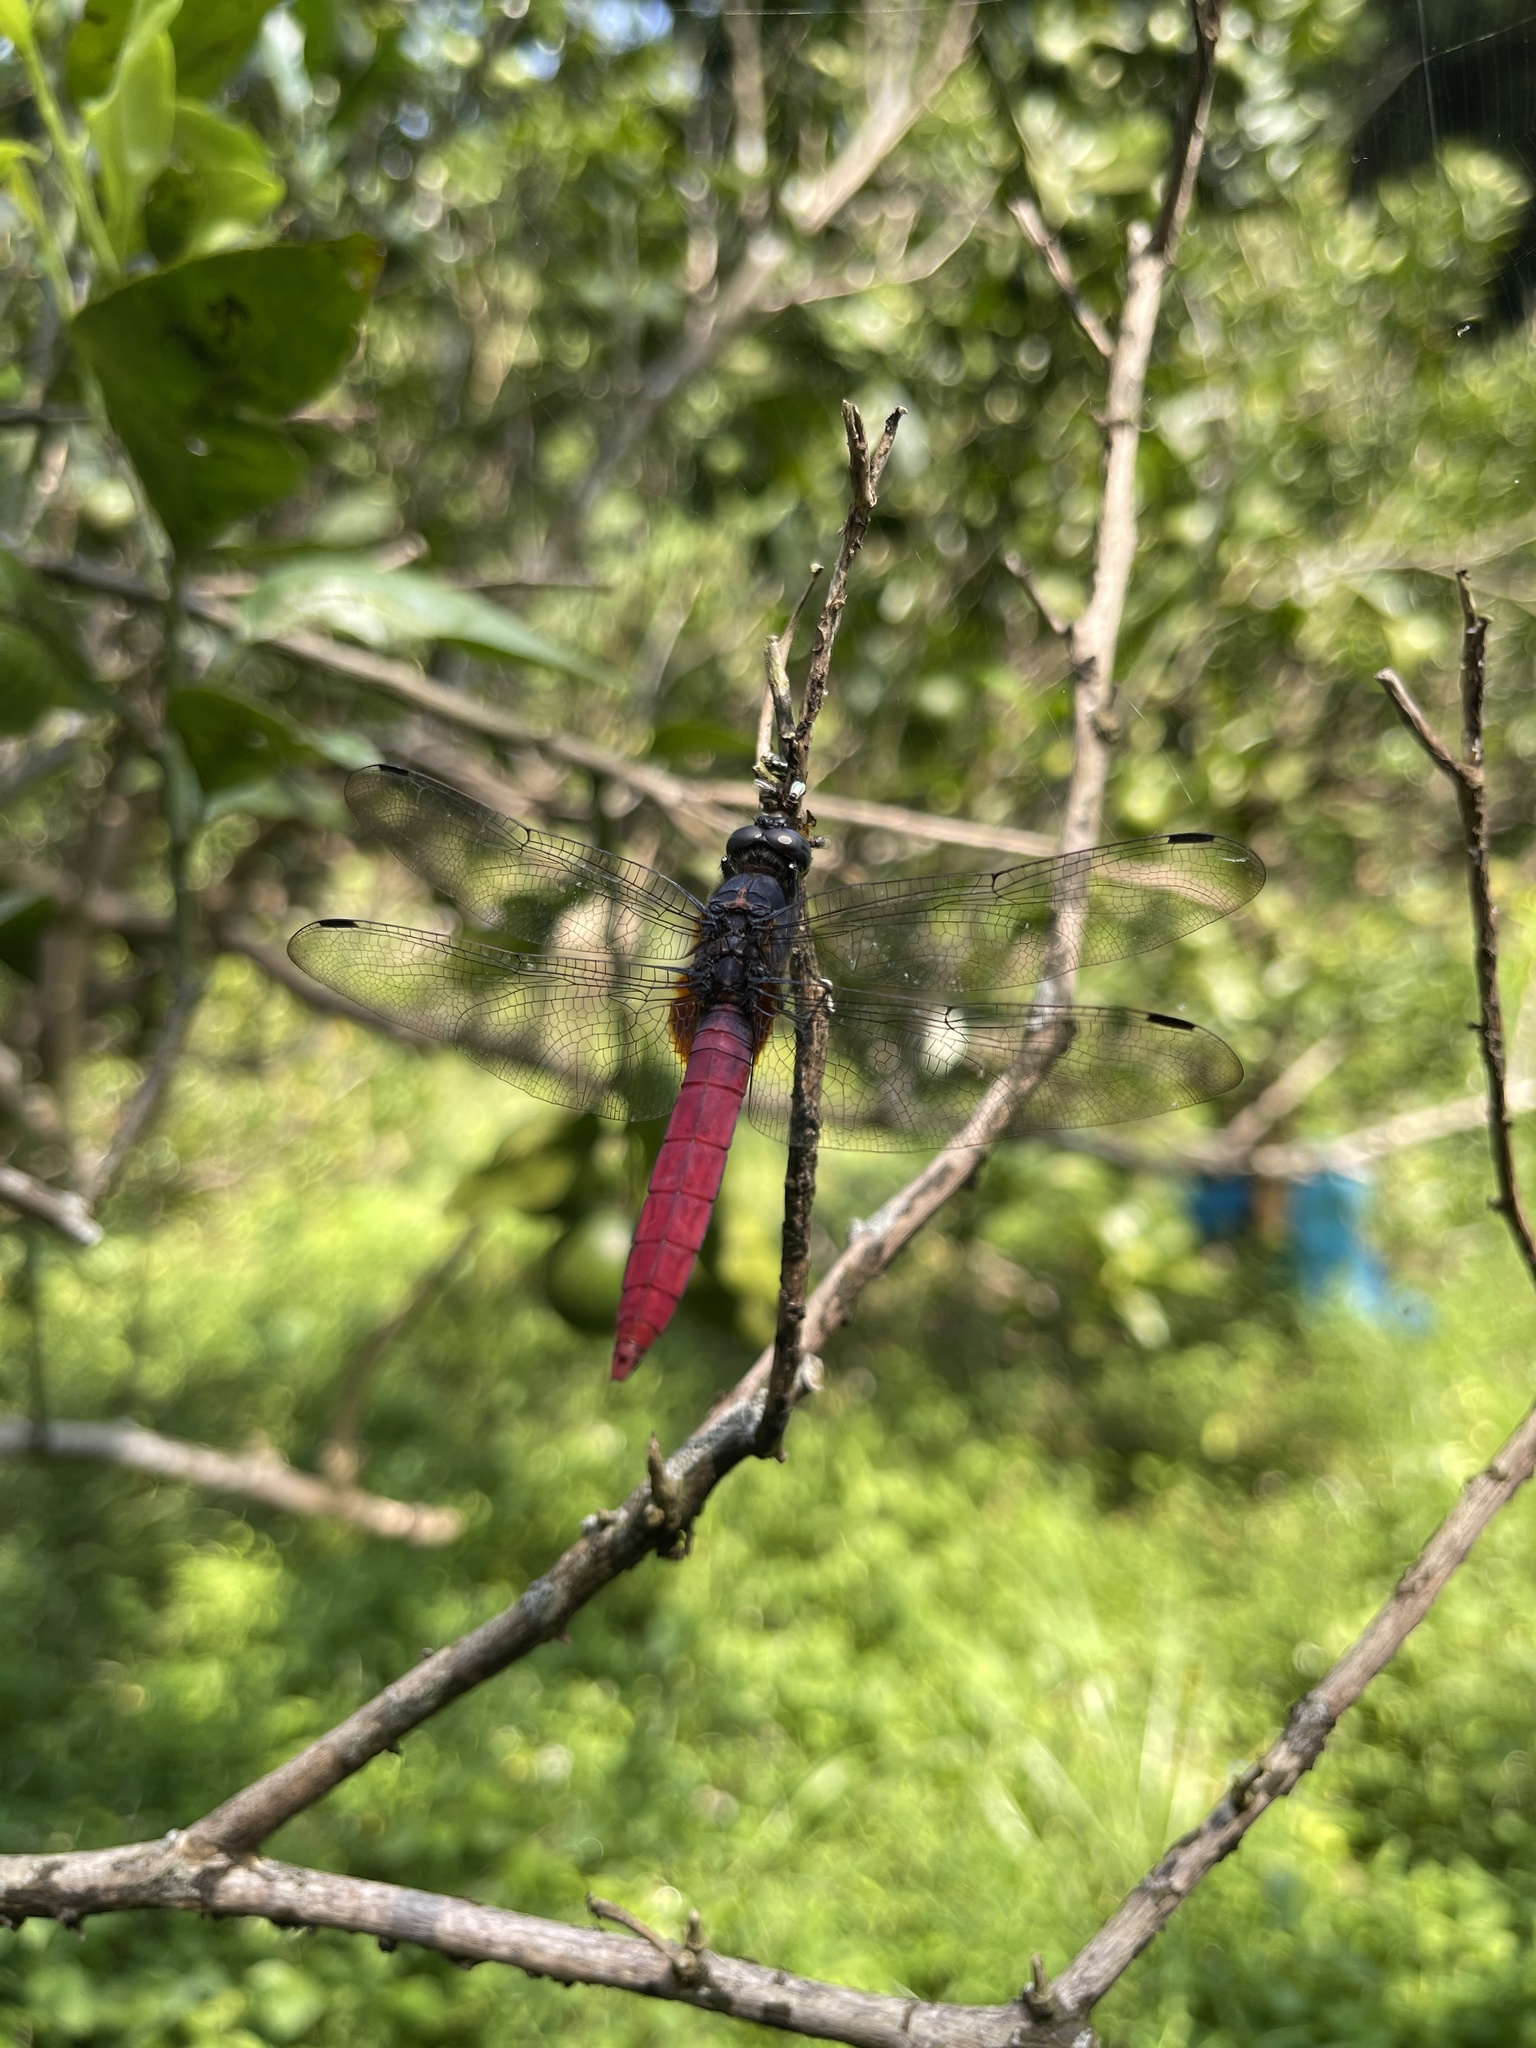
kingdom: Animalia
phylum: Arthropoda
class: Insecta
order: Odonata
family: Libellulidae
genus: Orthetrum
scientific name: Orthetrum pruinosum
